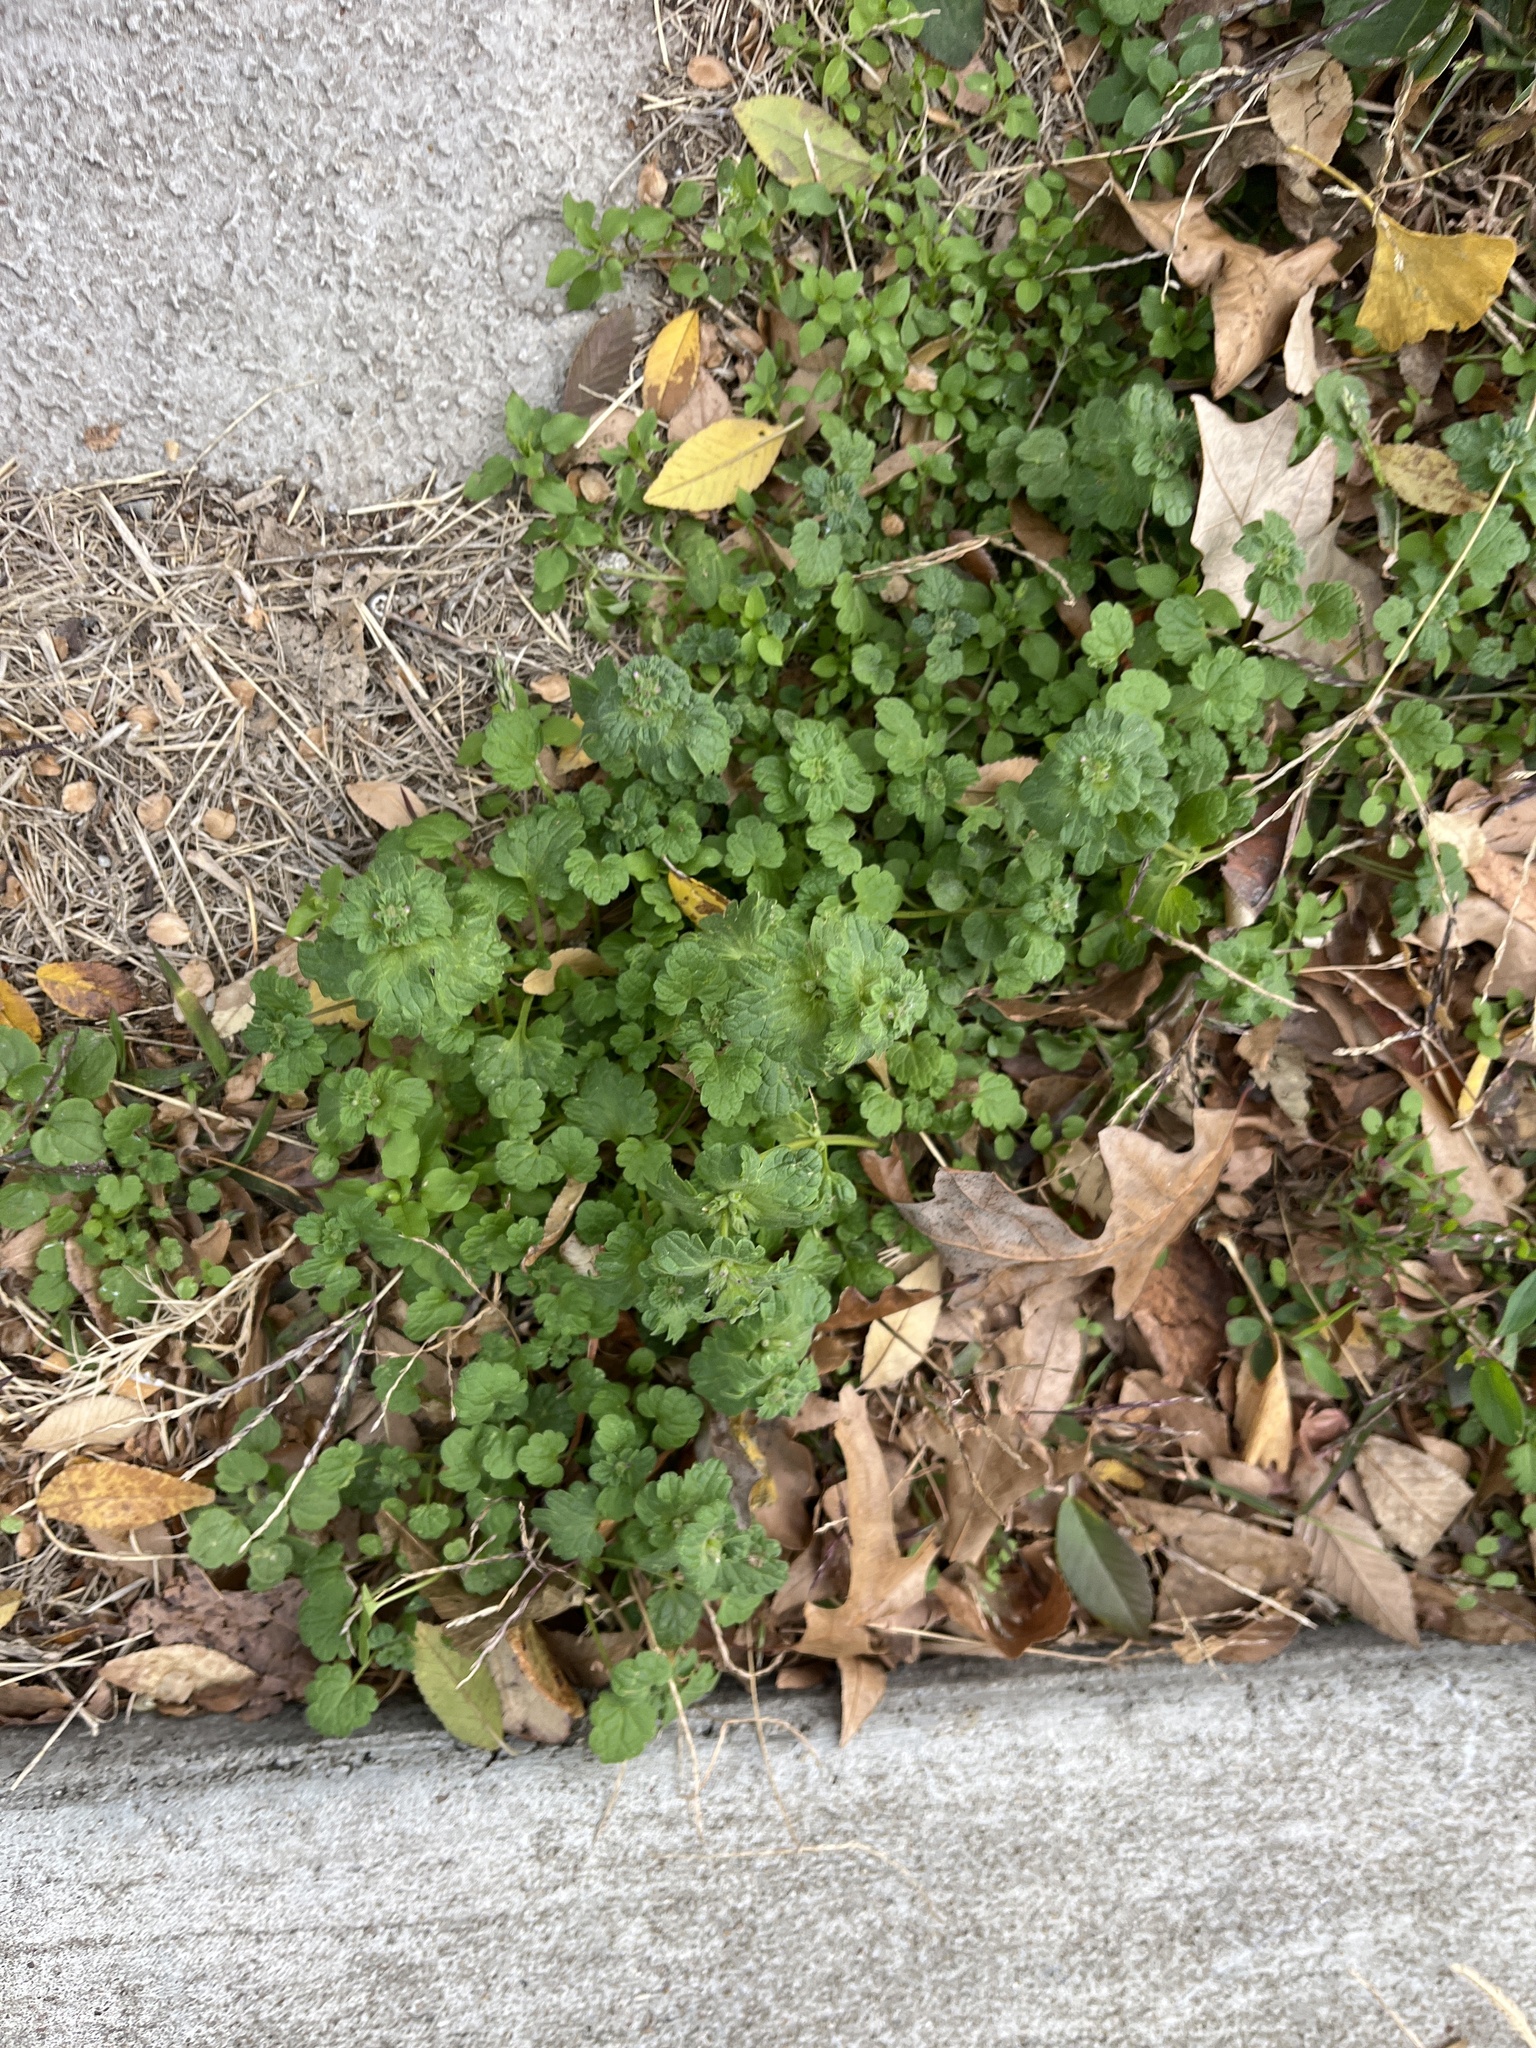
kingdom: Plantae
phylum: Tracheophyta
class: Magnoliopsida
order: Lamiales
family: Lamiaceae
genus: Lamium
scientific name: Lamium amplexicaule
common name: Henbit dead-nettle
